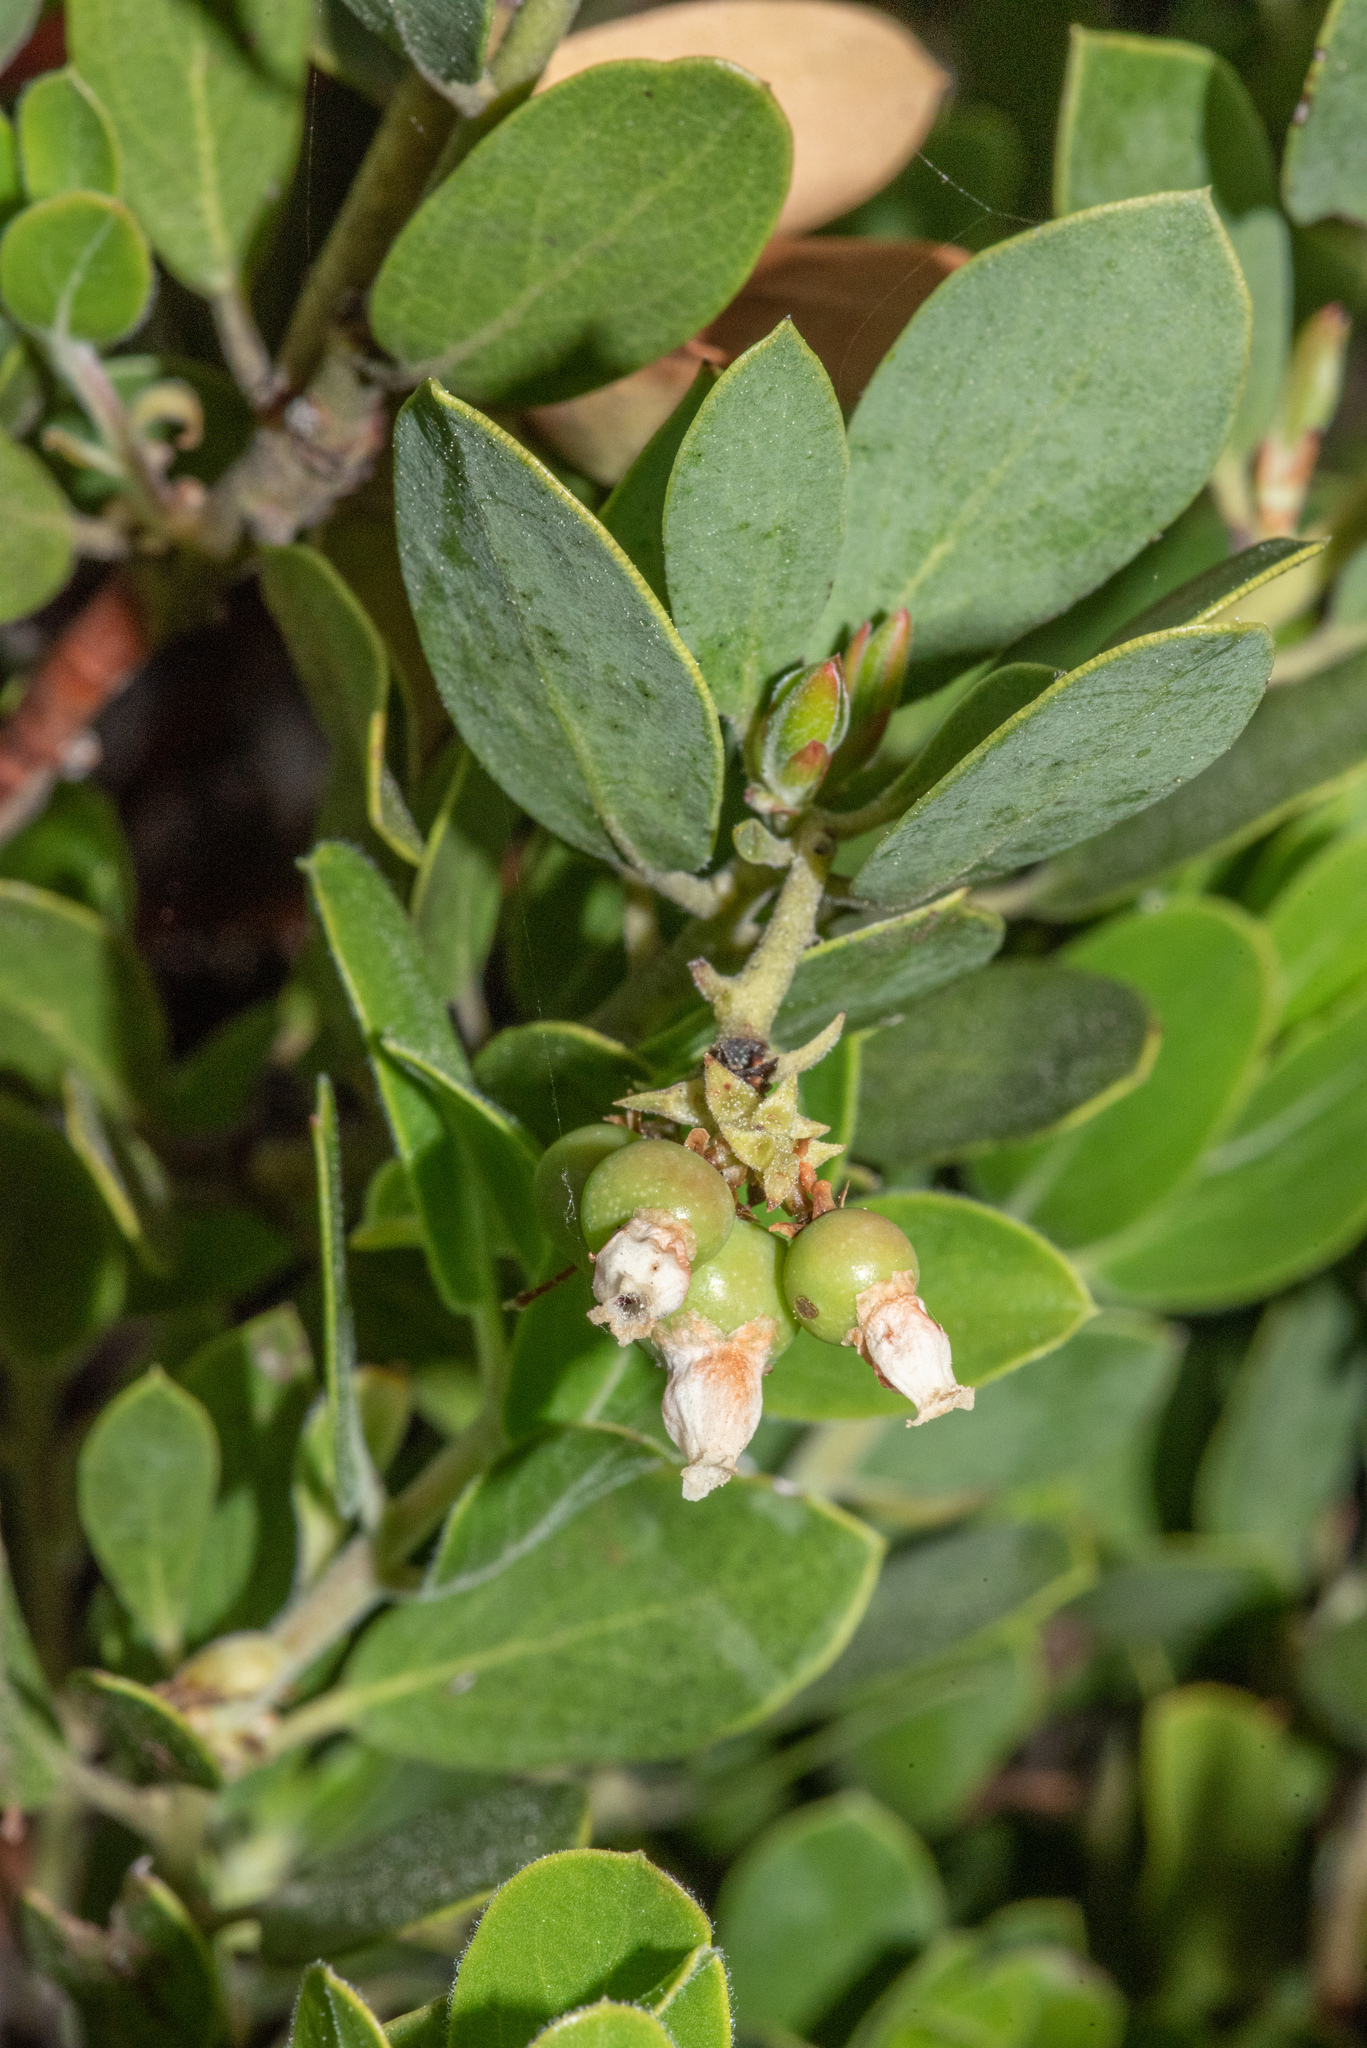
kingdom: Plantae
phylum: Tracheophyta
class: Magnoliopsida
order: Ericales
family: Ericaceae
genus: Arctostaphylos
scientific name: Arctostaphylos nevadensis
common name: Pinemat manzanita
